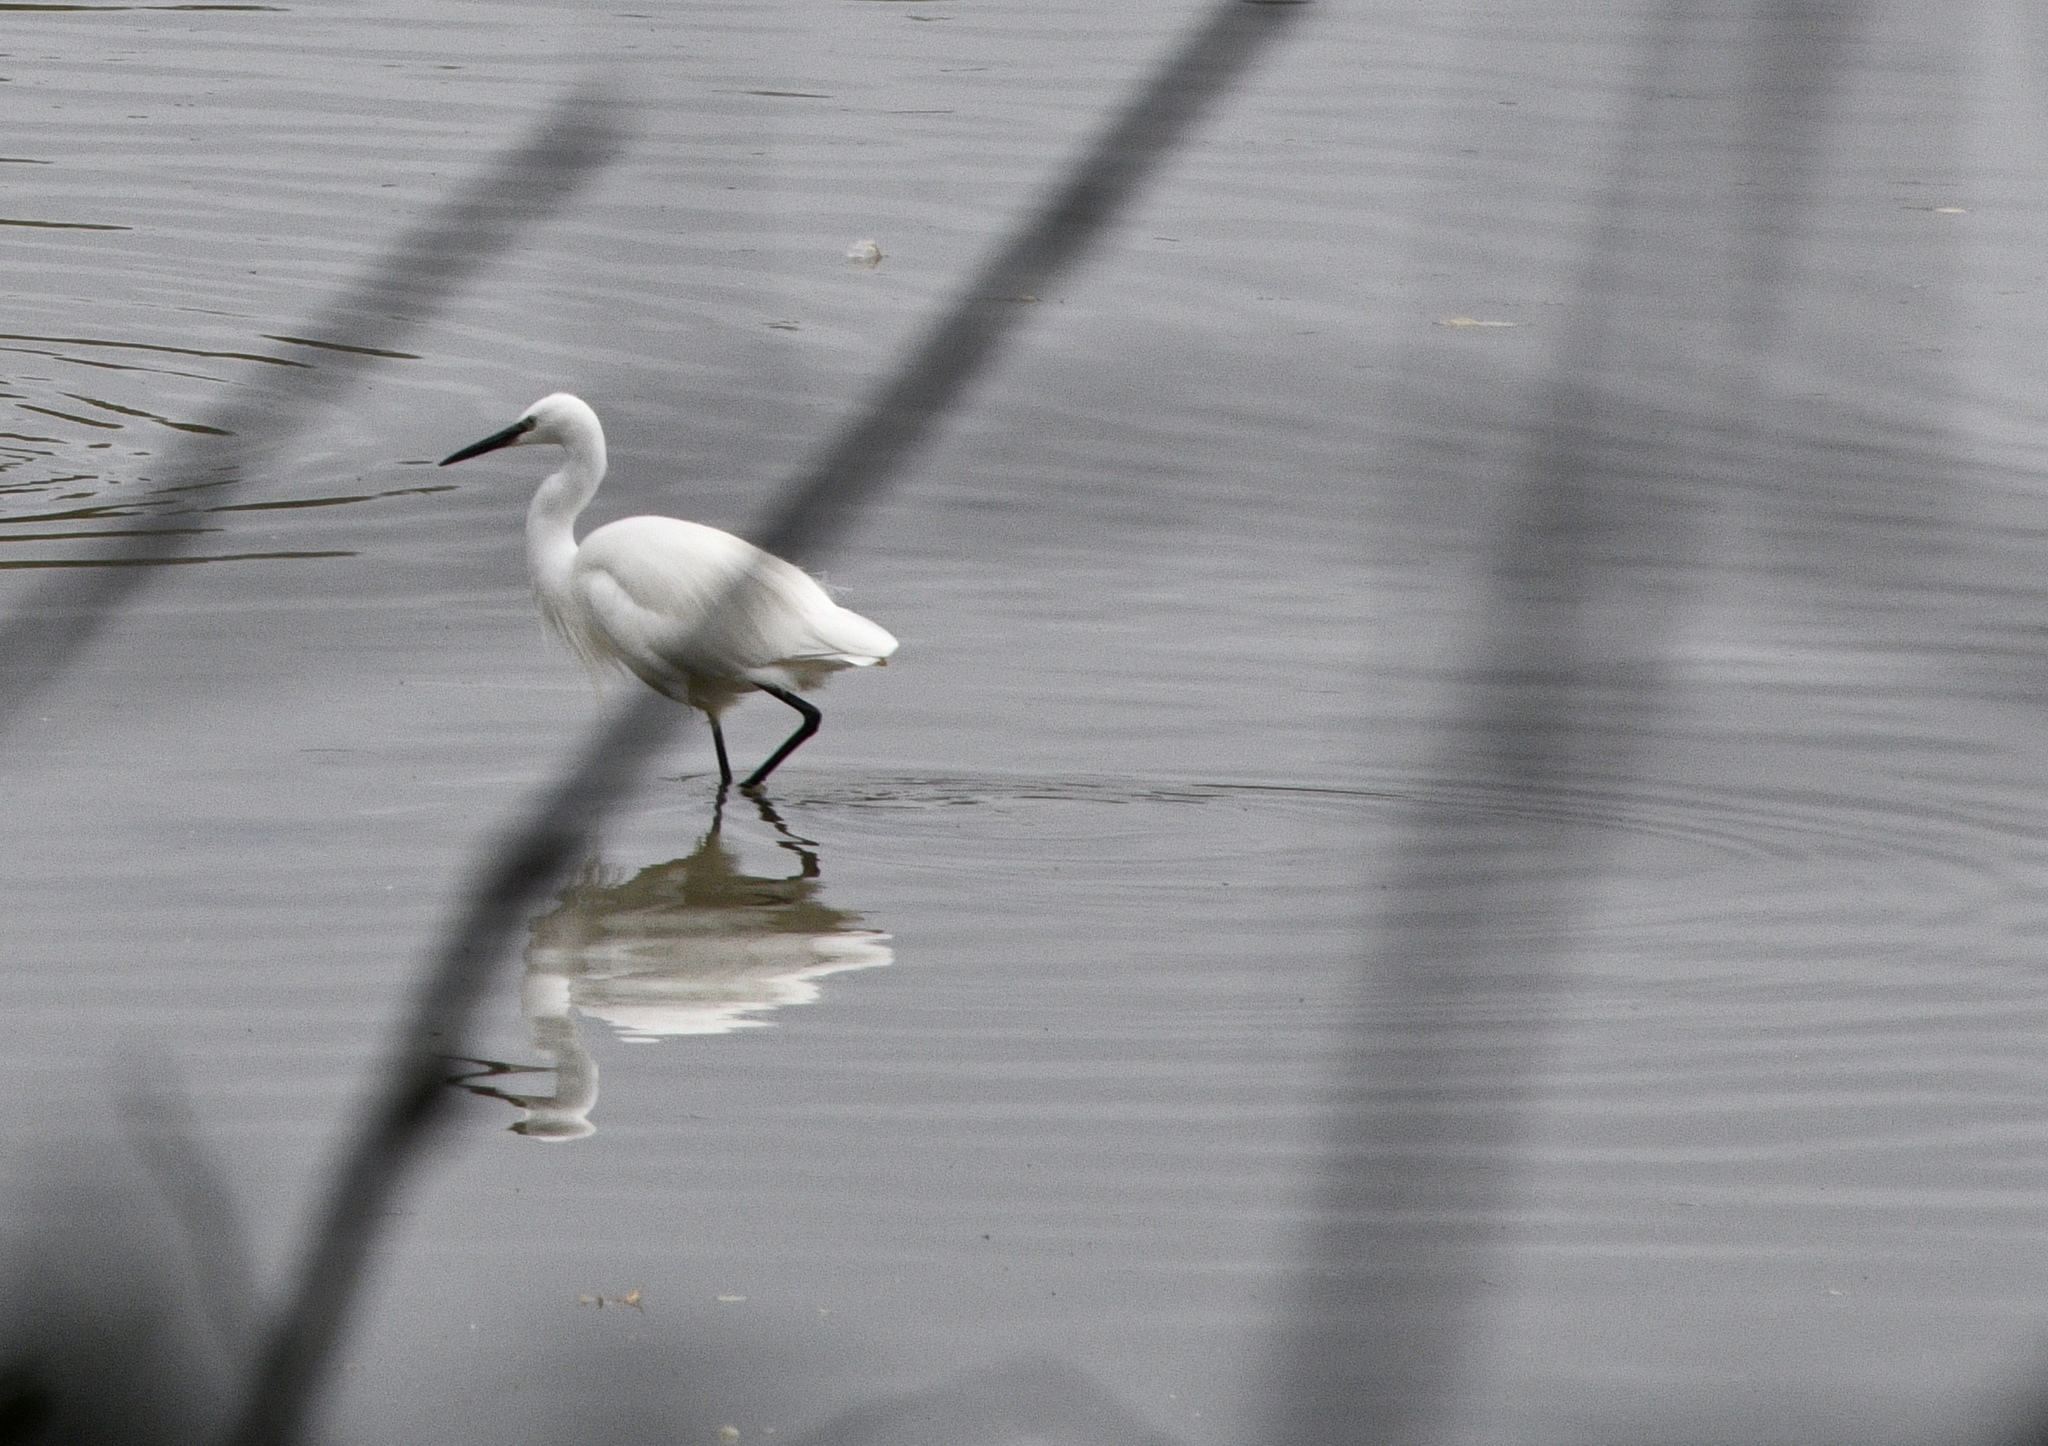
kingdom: Animalia
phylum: Chordata
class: Aves
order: Pelecaniformes
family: Ardeidae
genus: Egretta
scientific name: Egretta garzetta
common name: Little egret
